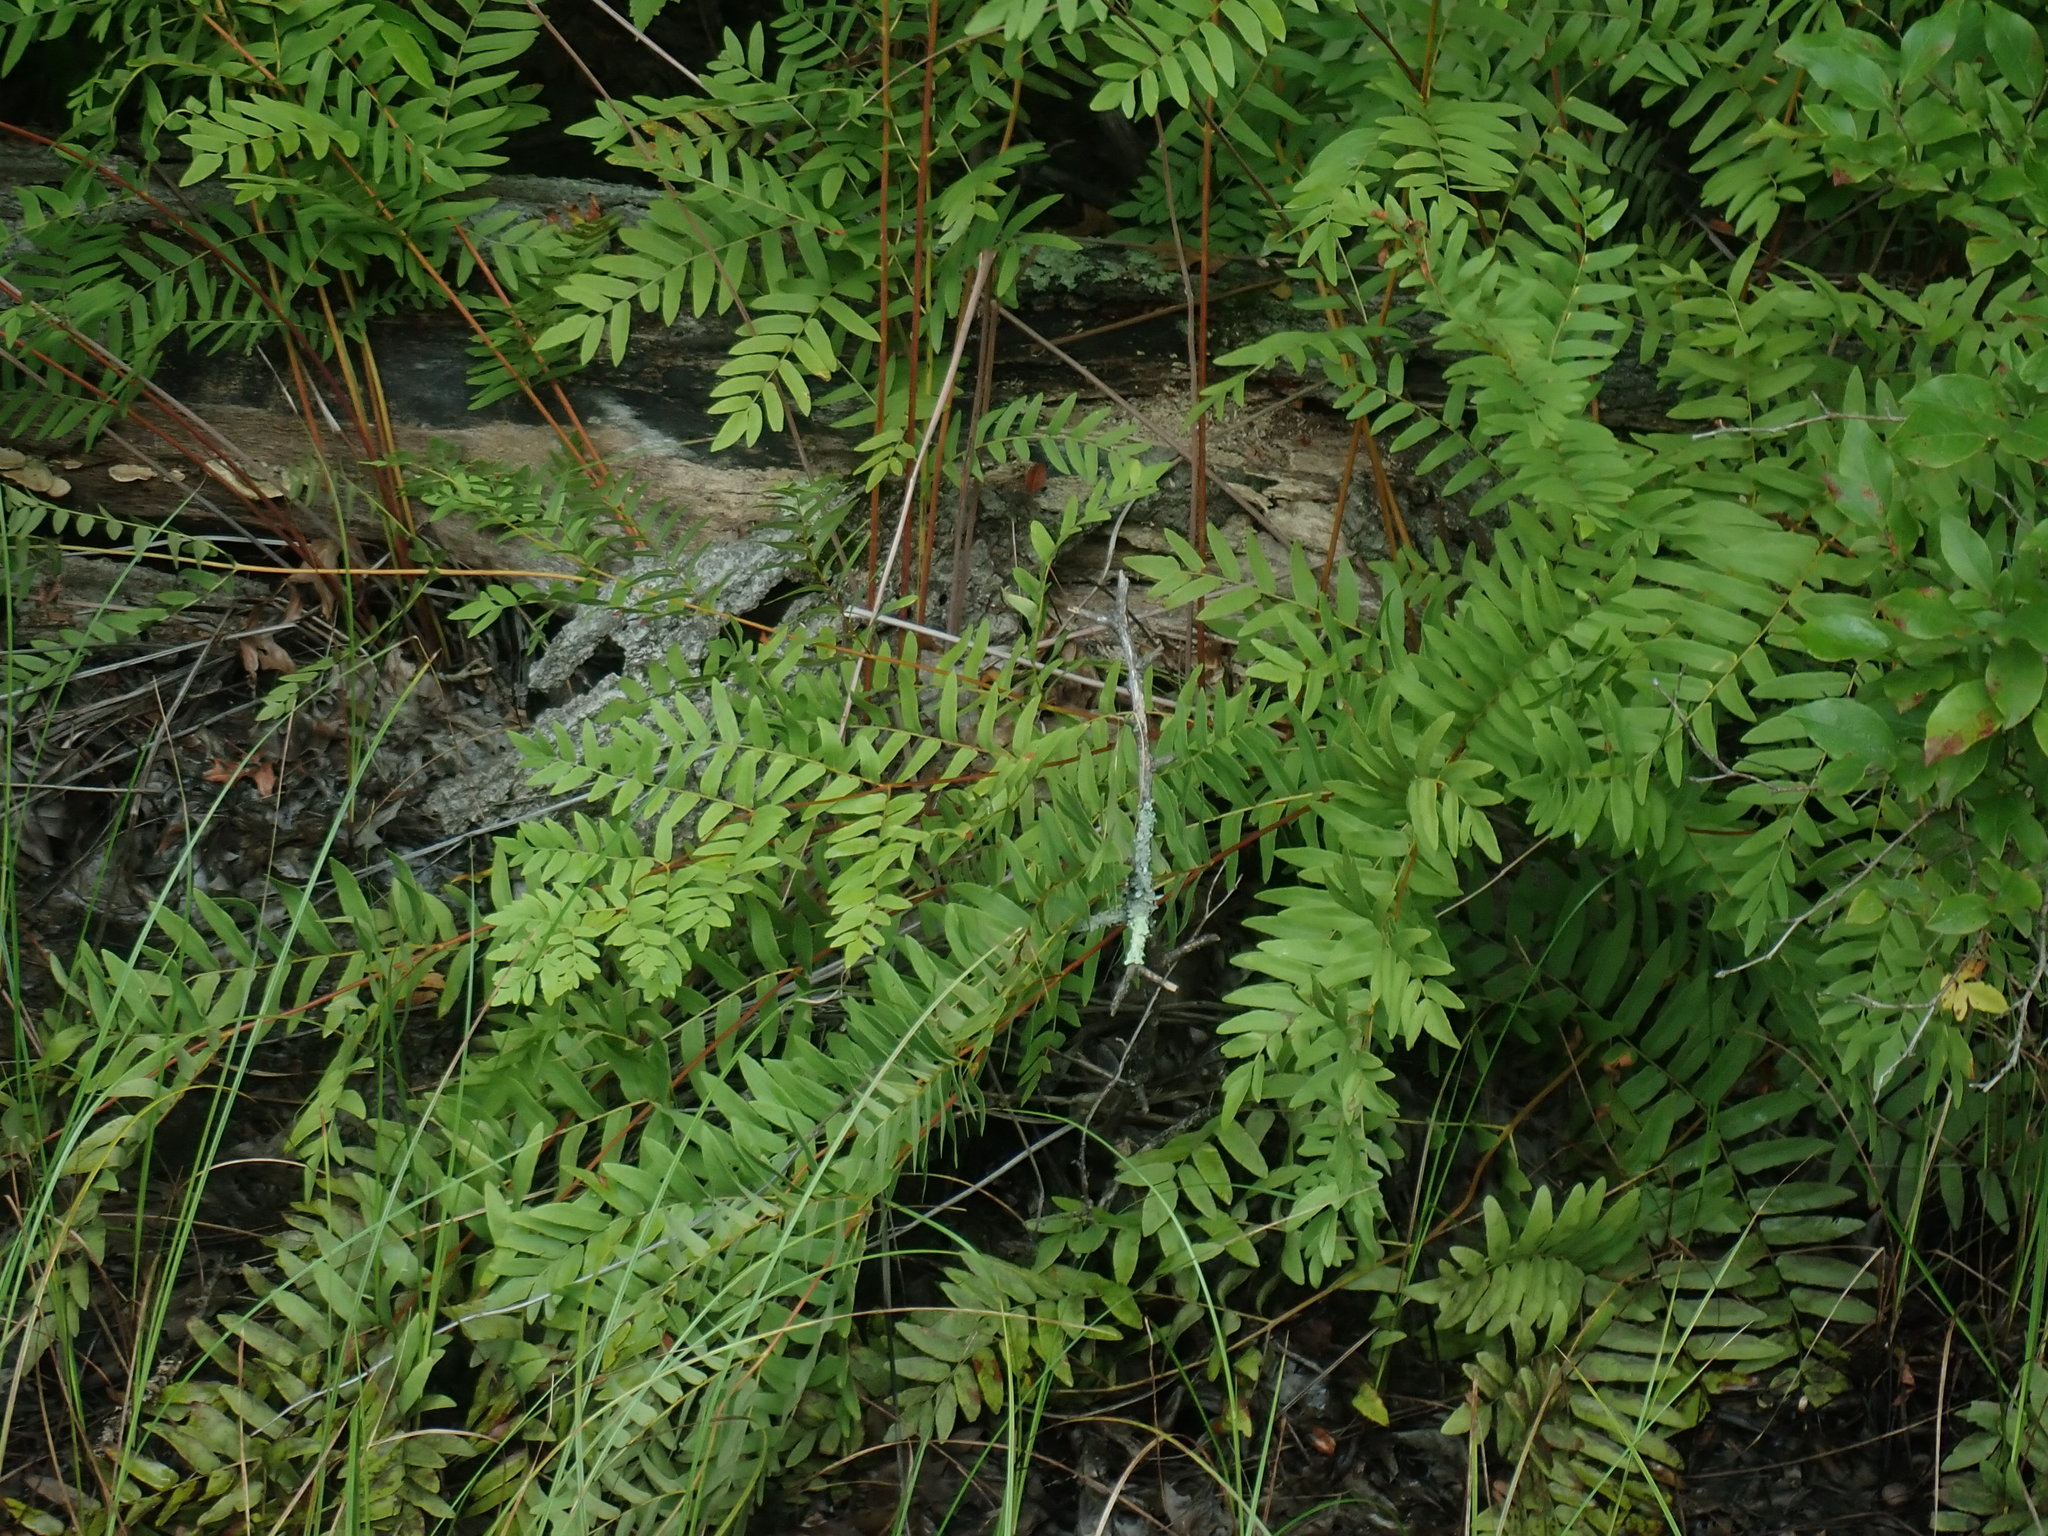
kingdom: Plantae
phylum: Tracheophyta
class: Polypodiopsida
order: Osmundales
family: Osmundaceae
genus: Osmunda
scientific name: Osmunda spectabilis
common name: American royal fern
